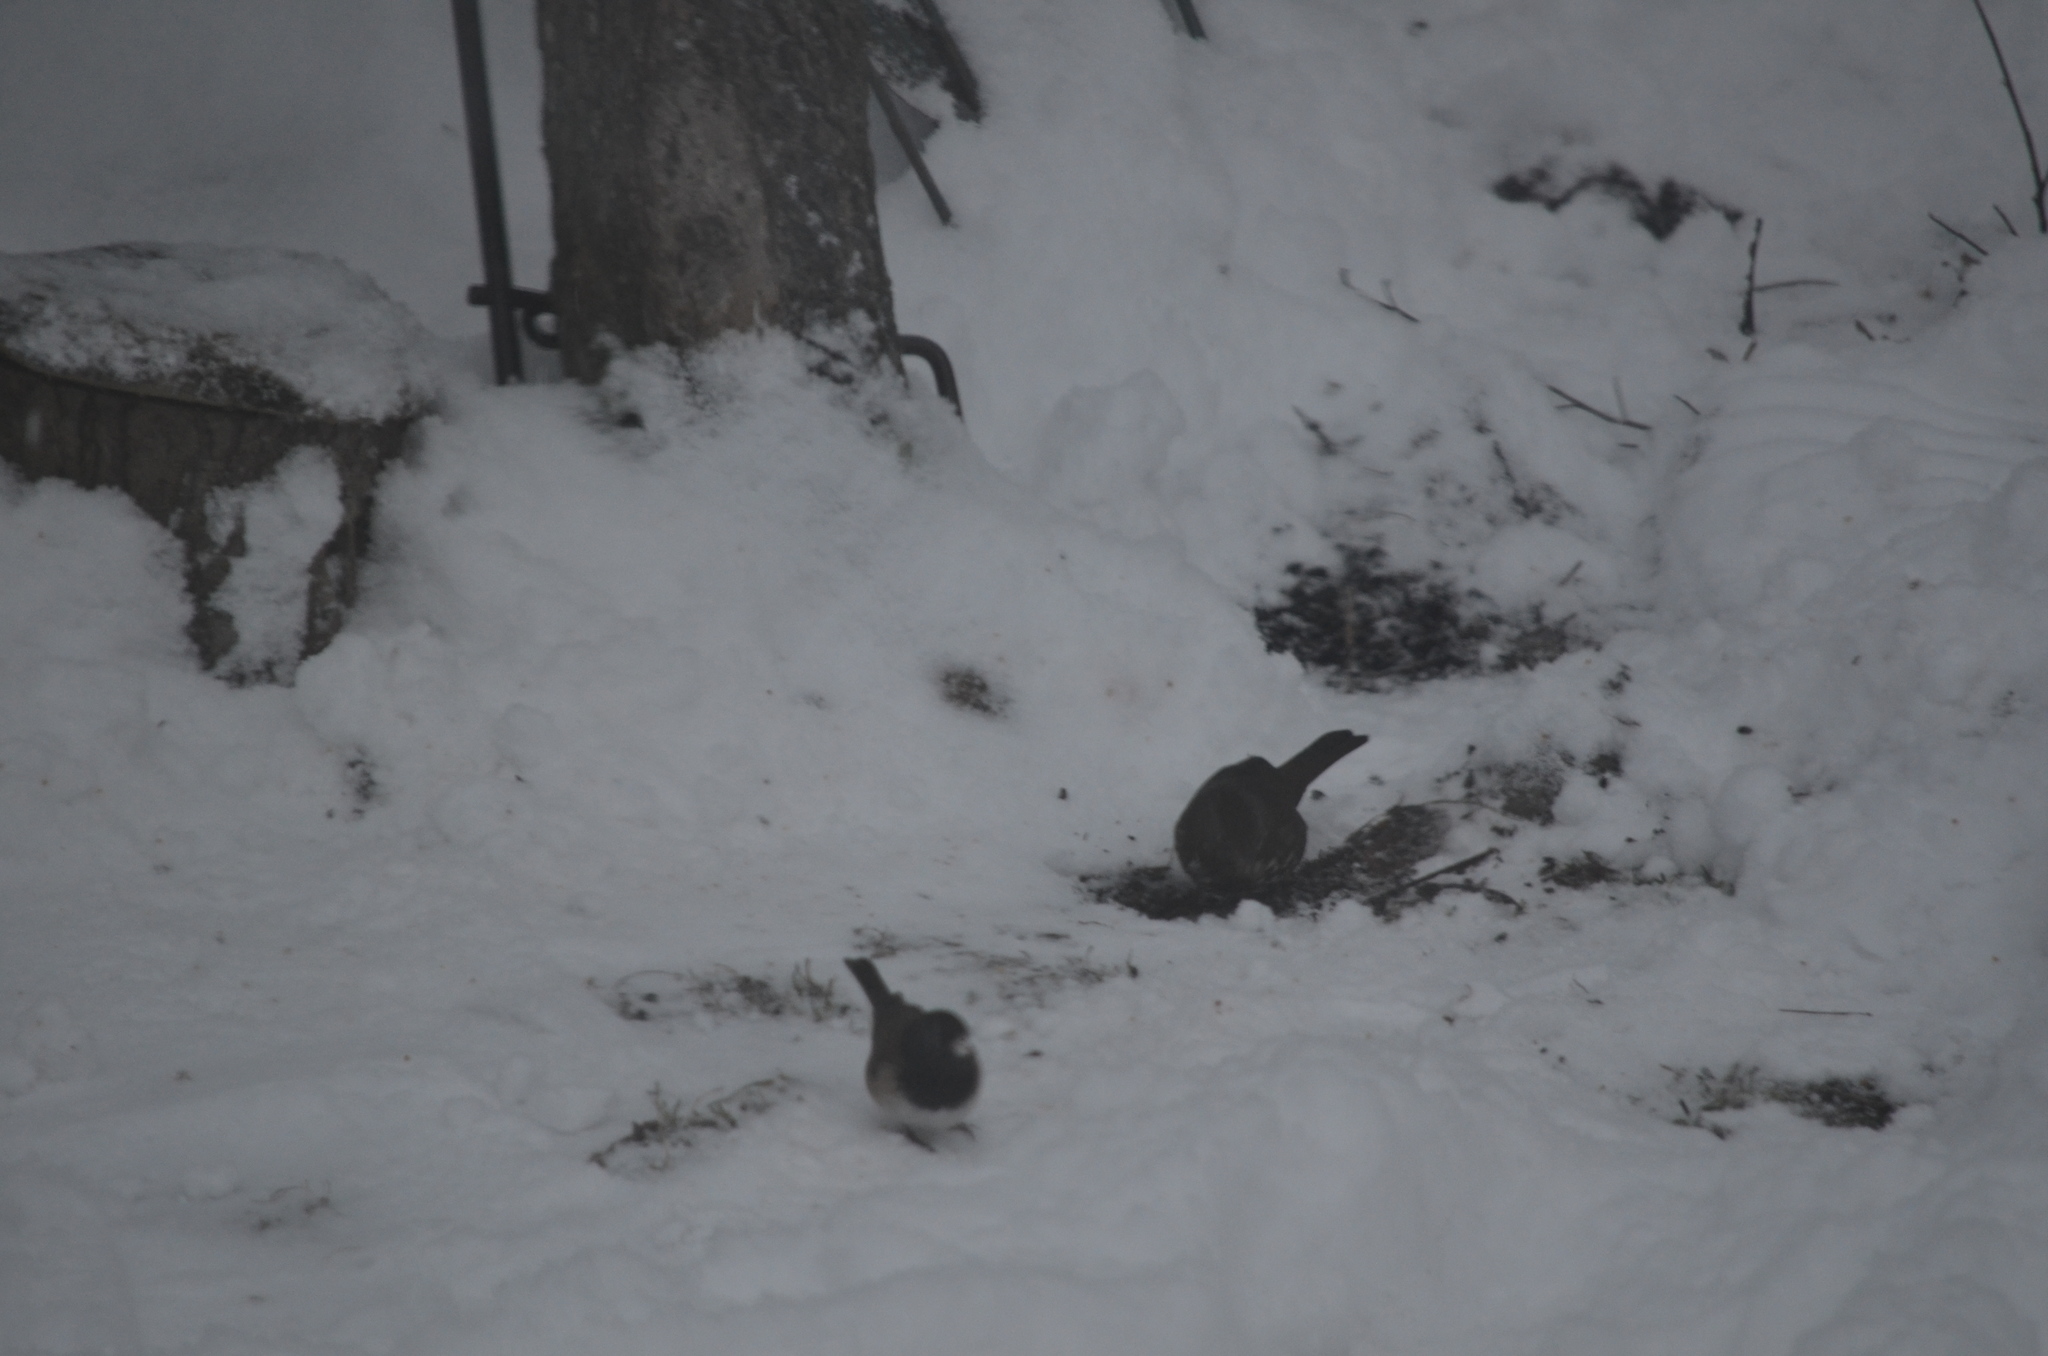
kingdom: Animalia
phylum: Chordata
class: Aves
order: Passeriformes
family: Passerellidae
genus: Passerella
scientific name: Passerella iliaca
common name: Fox sparrow
